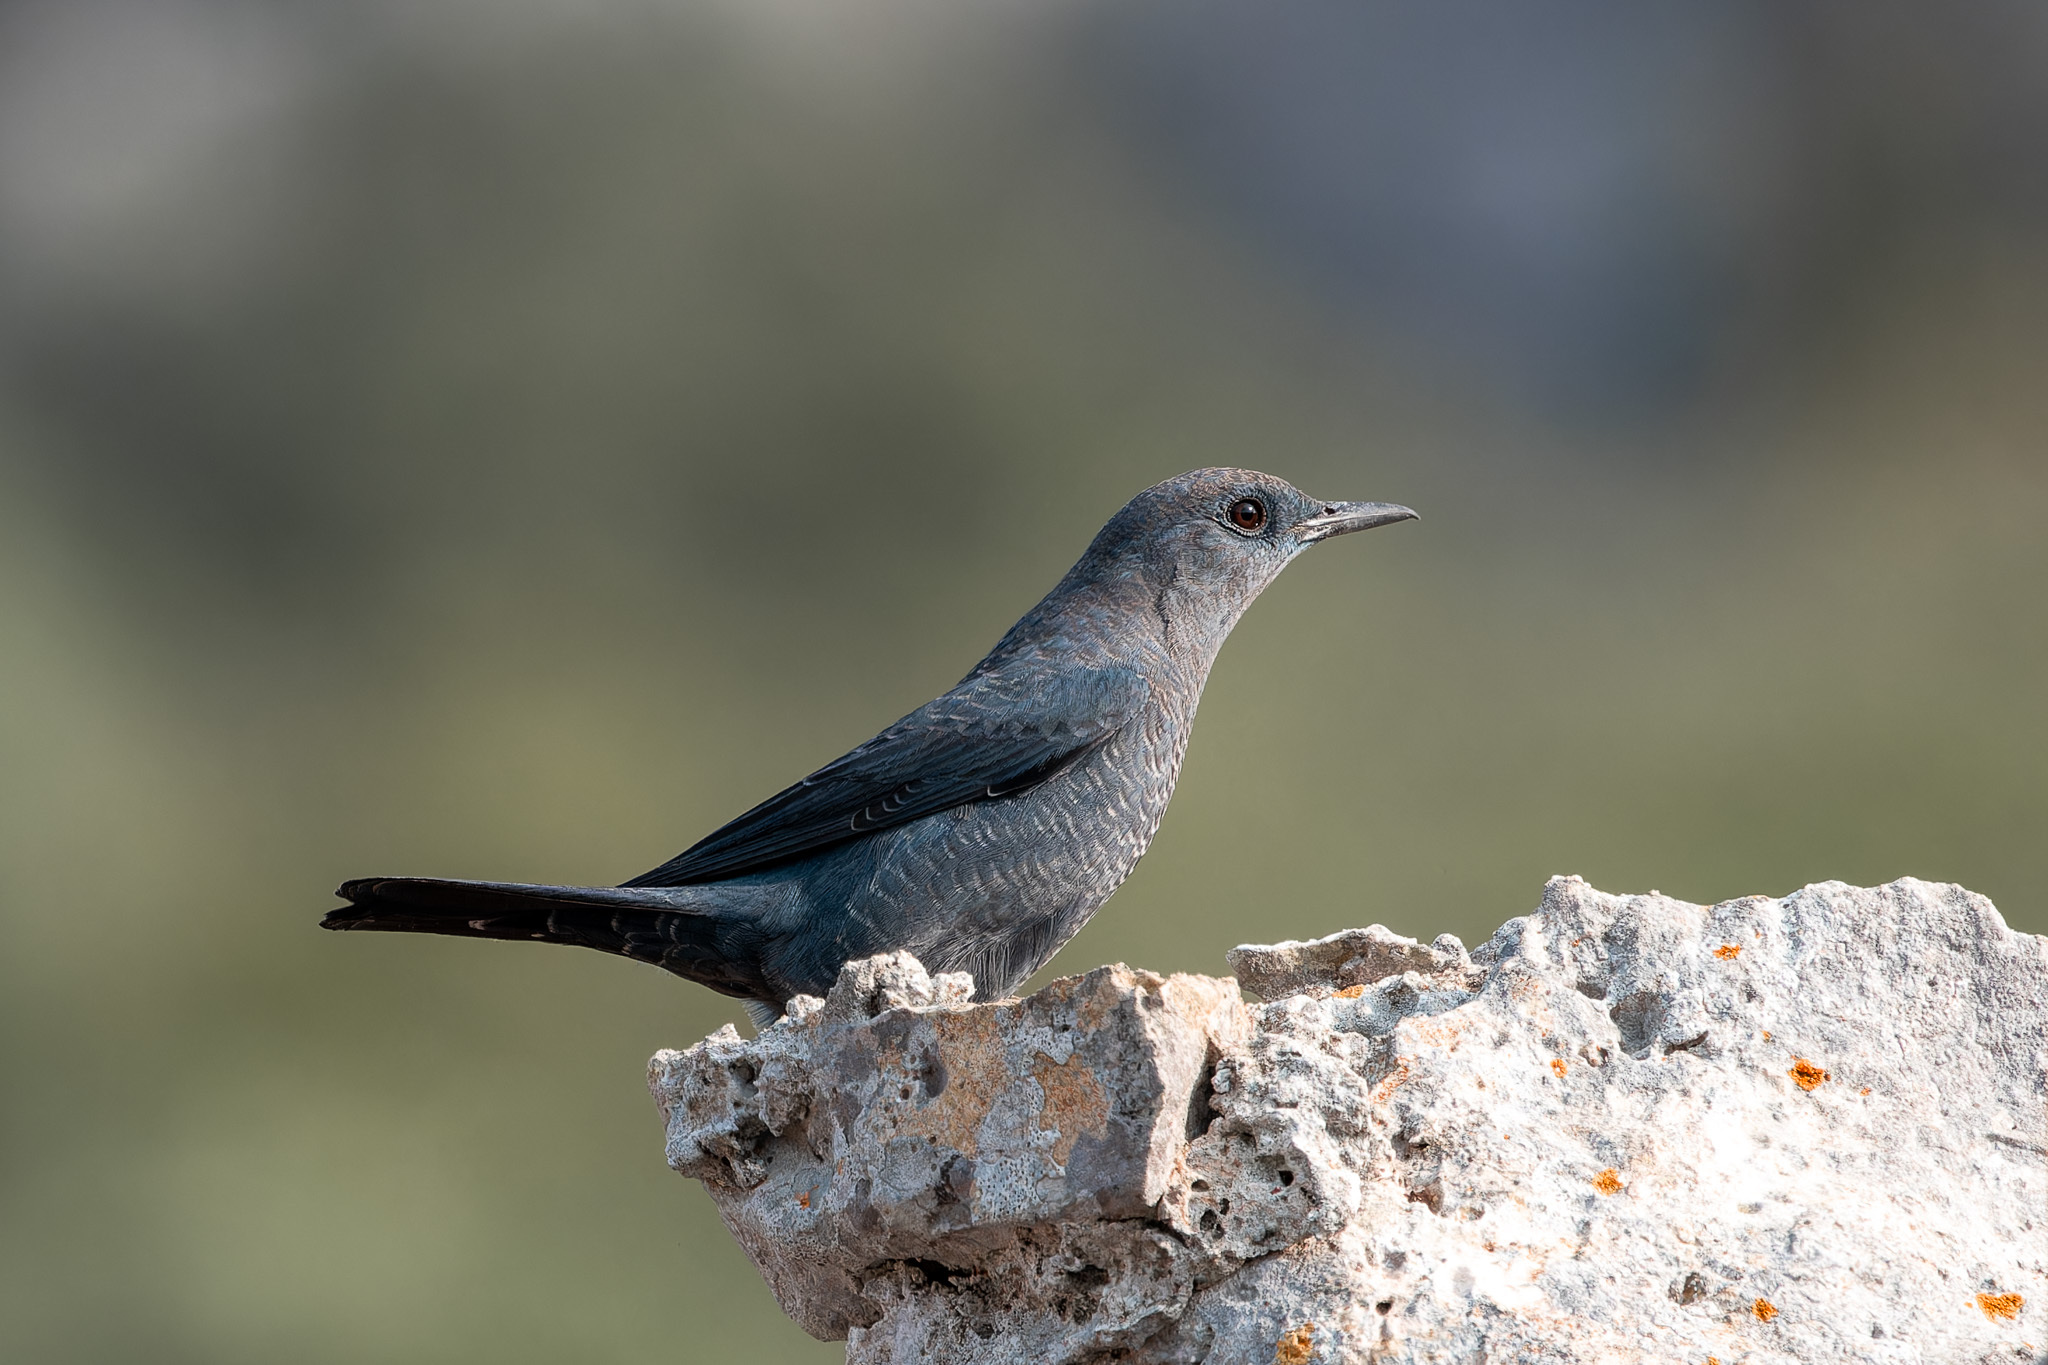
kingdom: Animalia
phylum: Chordata
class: Aves
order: Passeriformes
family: Muscicapidae
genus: Monticola
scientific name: Monticola solitarius
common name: Blue rock thrush
